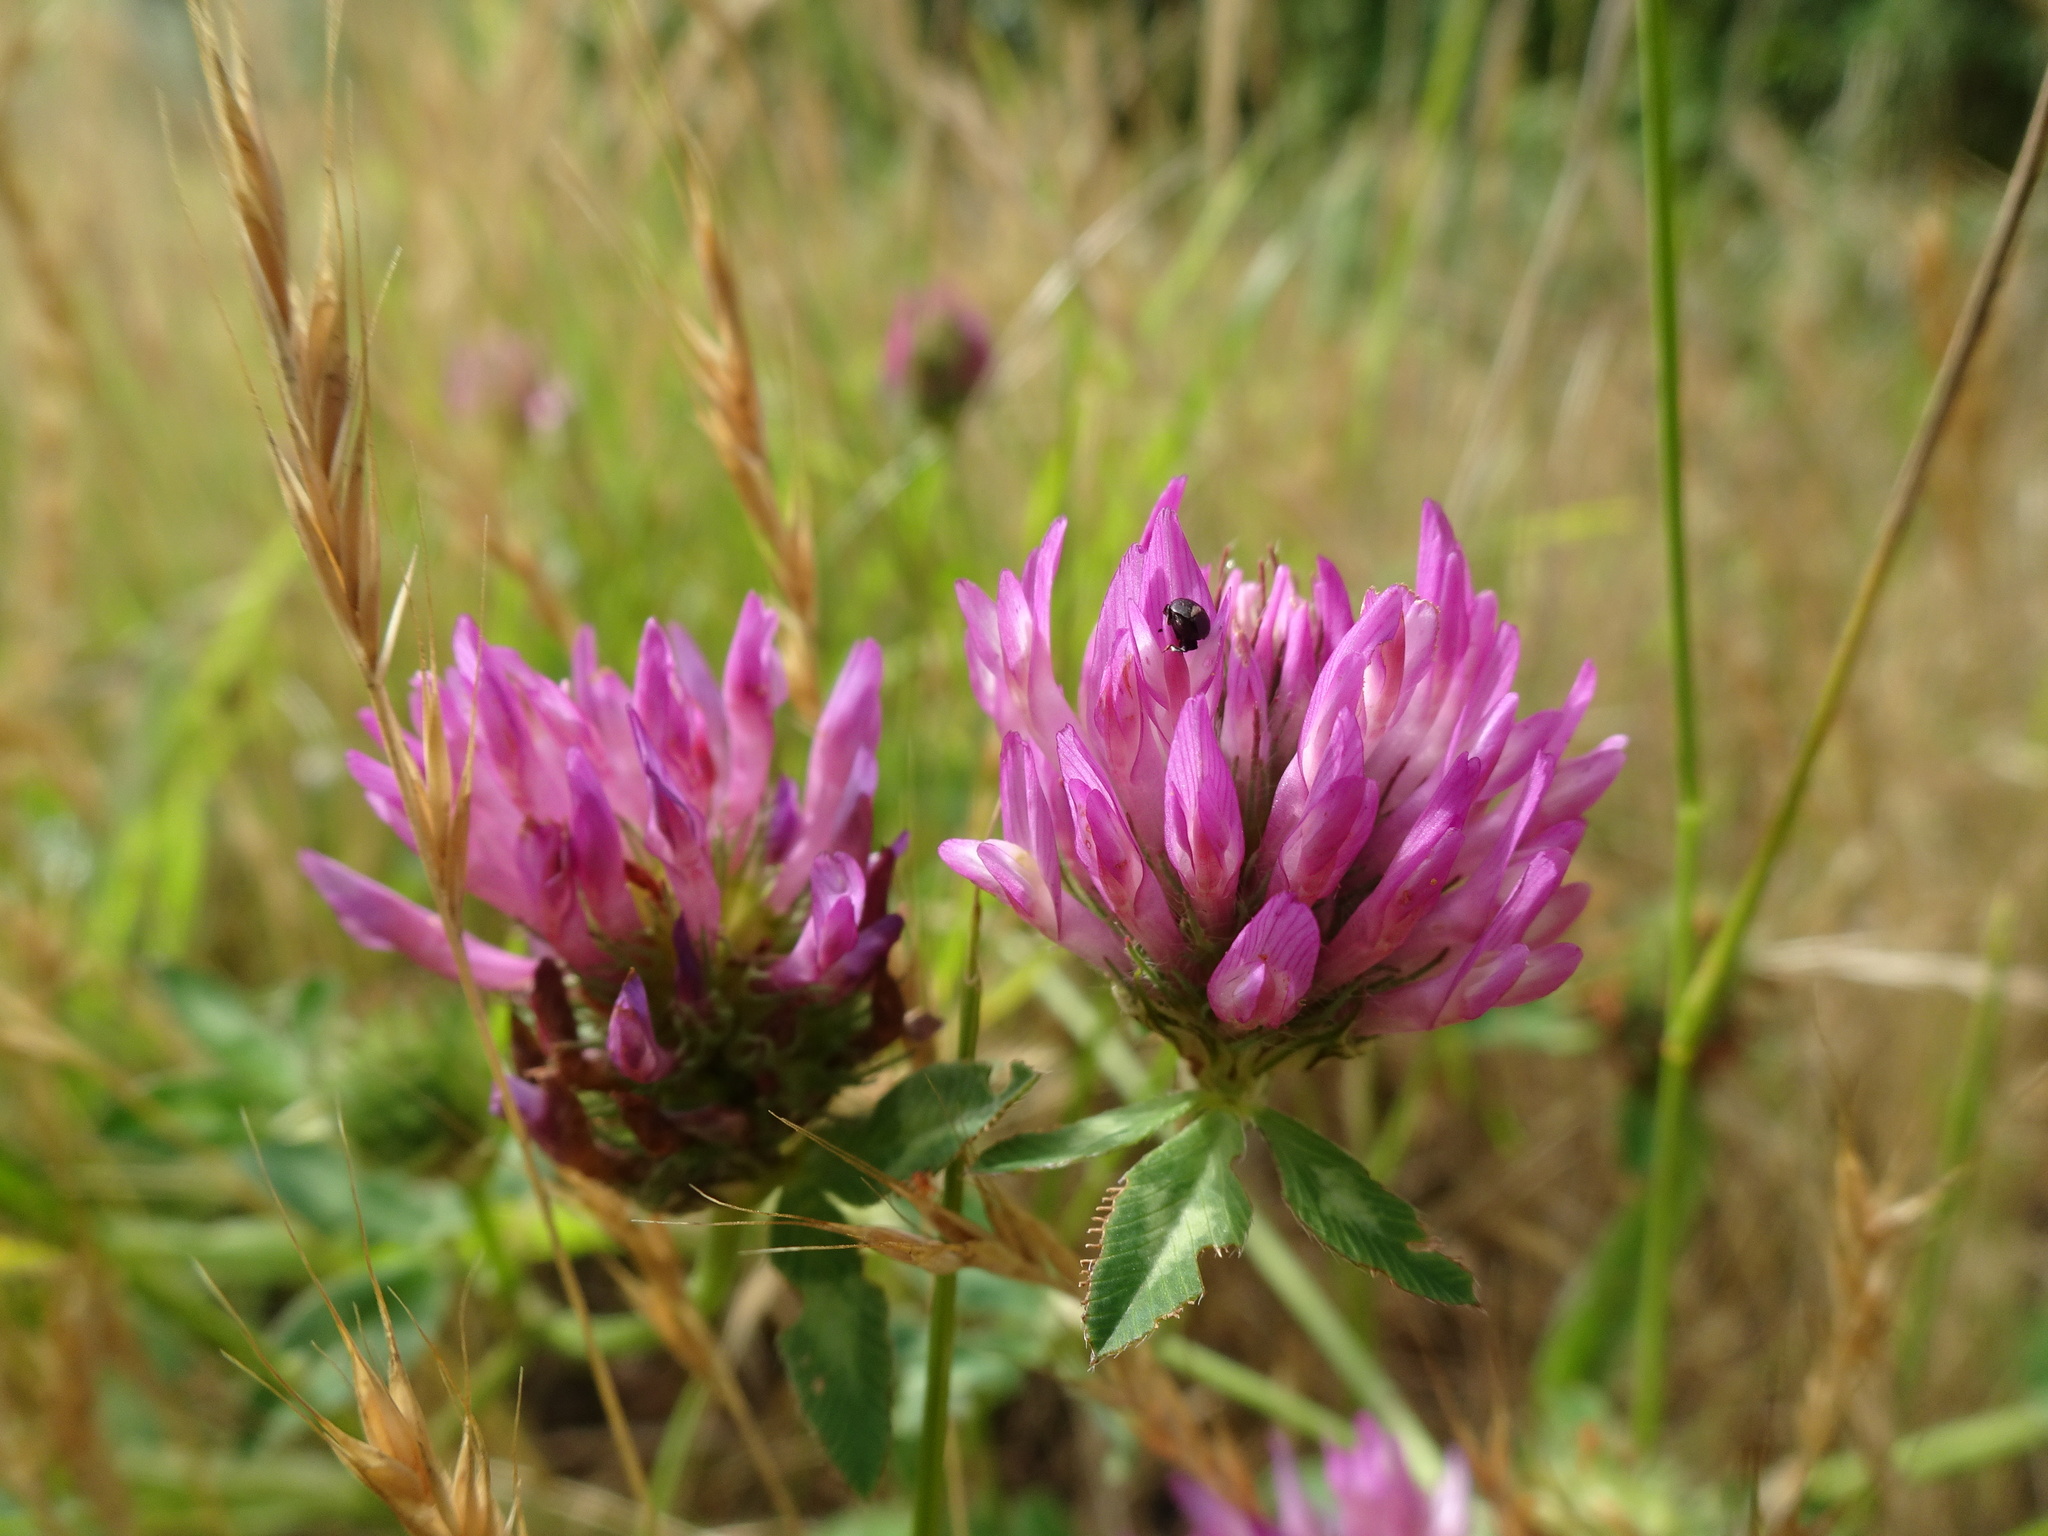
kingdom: Plantae
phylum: Tracheophyta
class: Magnoliopsida
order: Fabales
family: Fabaceae
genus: Trifolium
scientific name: Trifolium pratense
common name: Red clover
